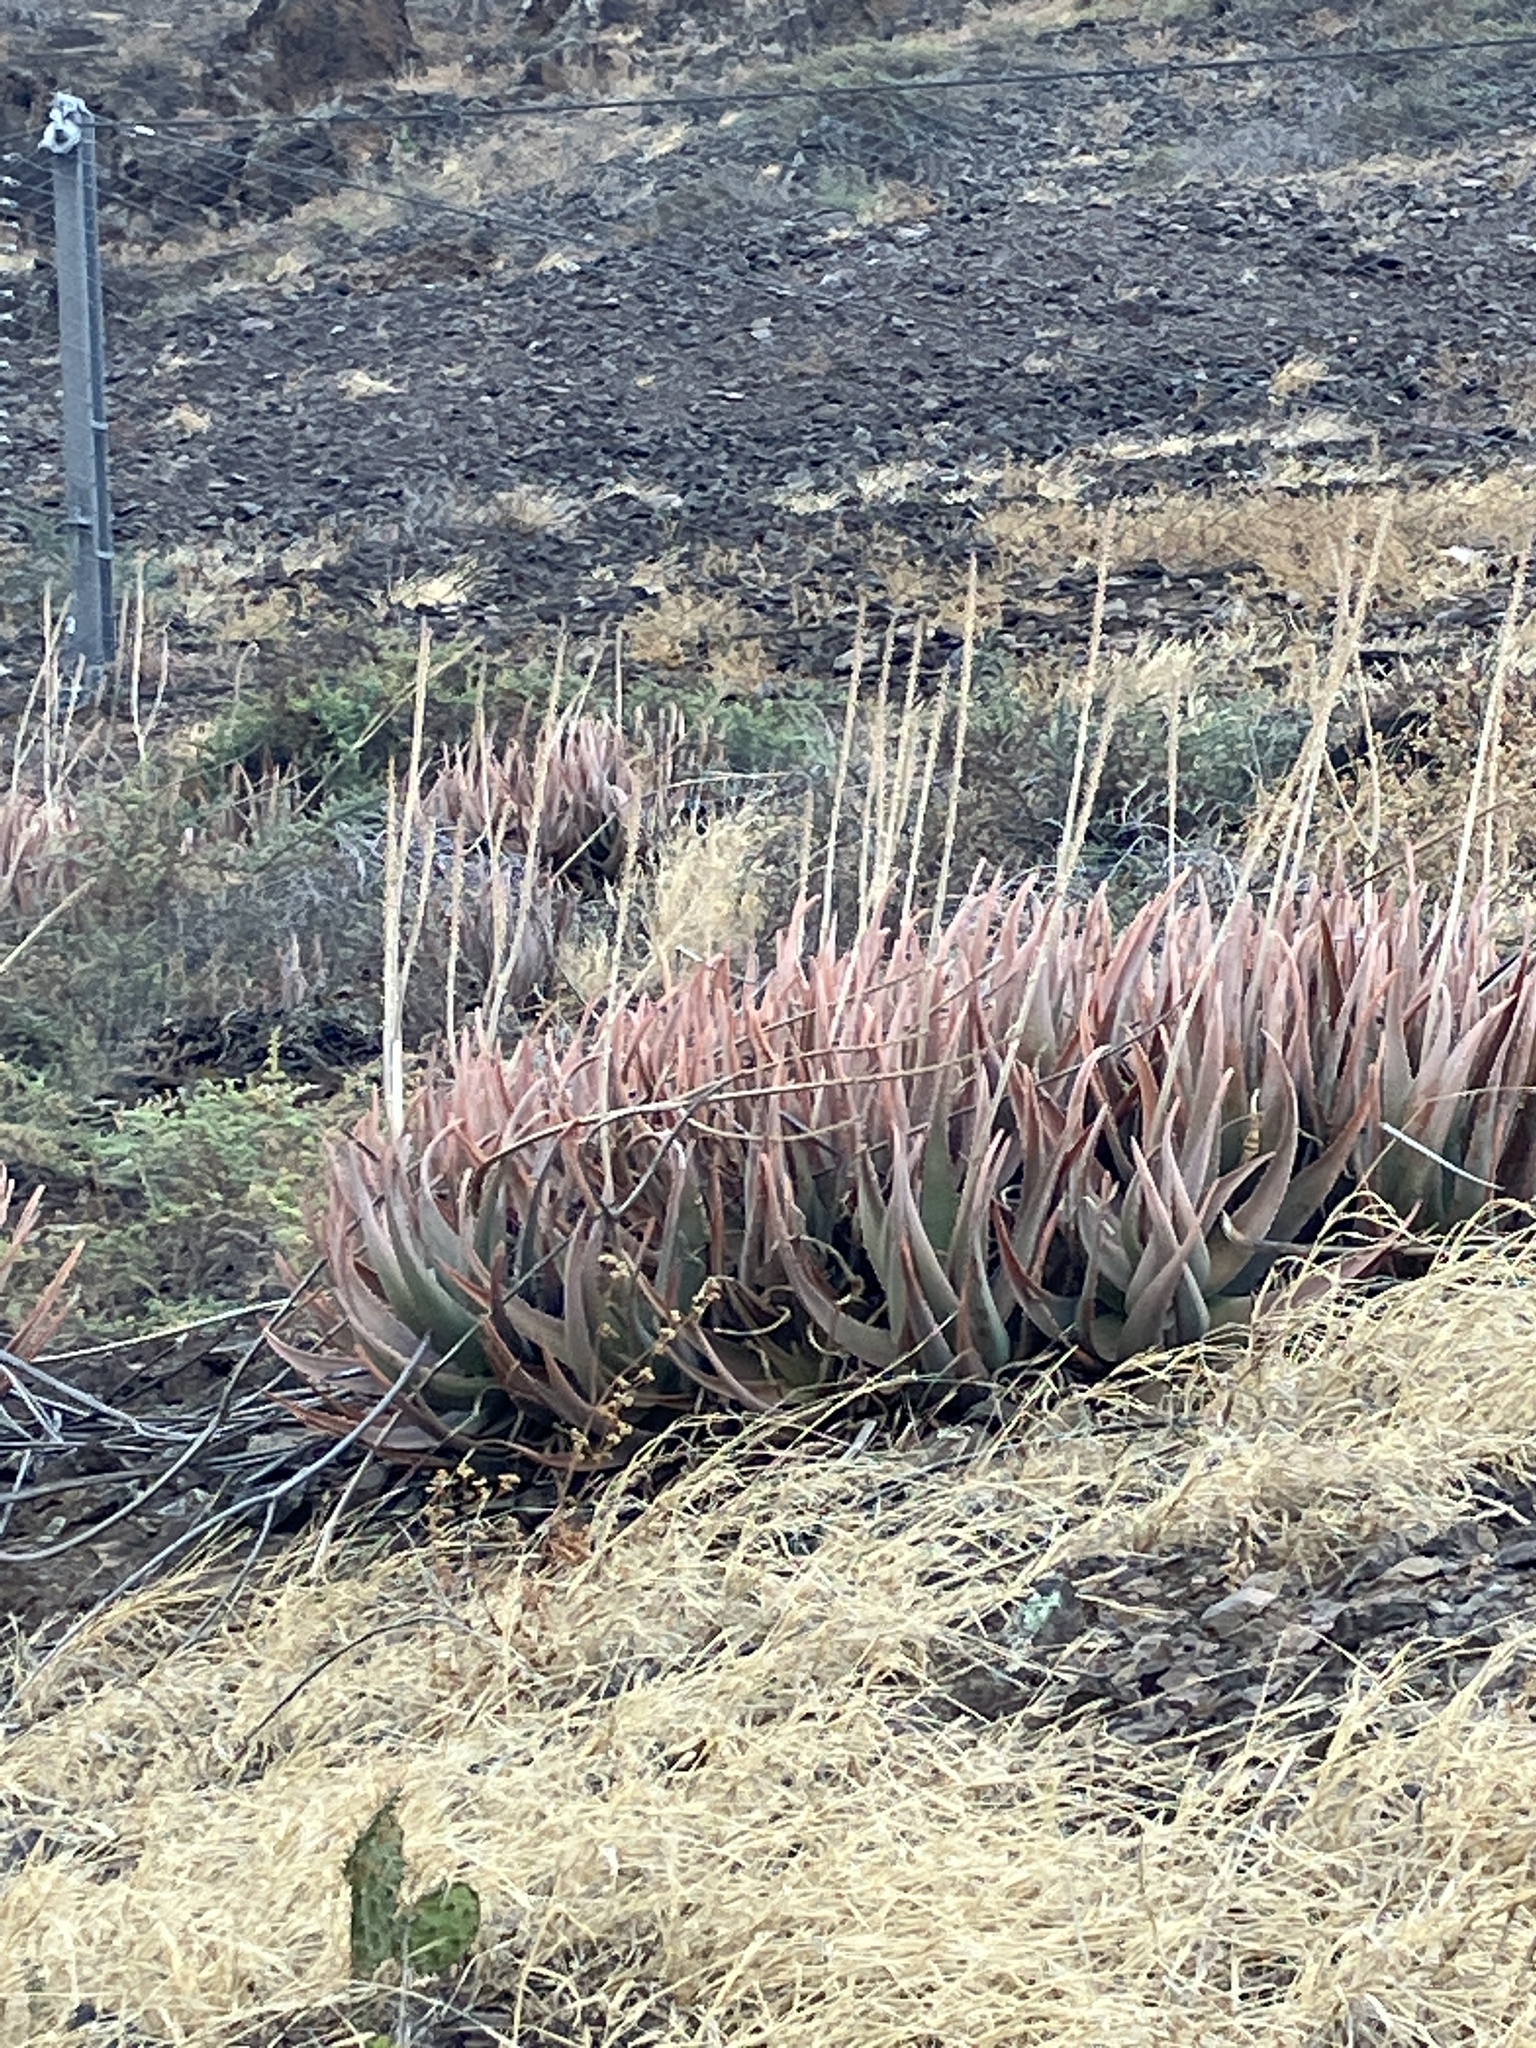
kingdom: Plantae
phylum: Tracheophyta
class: Liliopsida
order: Asparagales
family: Asphodelaceae
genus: Aloe
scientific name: Aloe vera
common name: Barbados aloe
